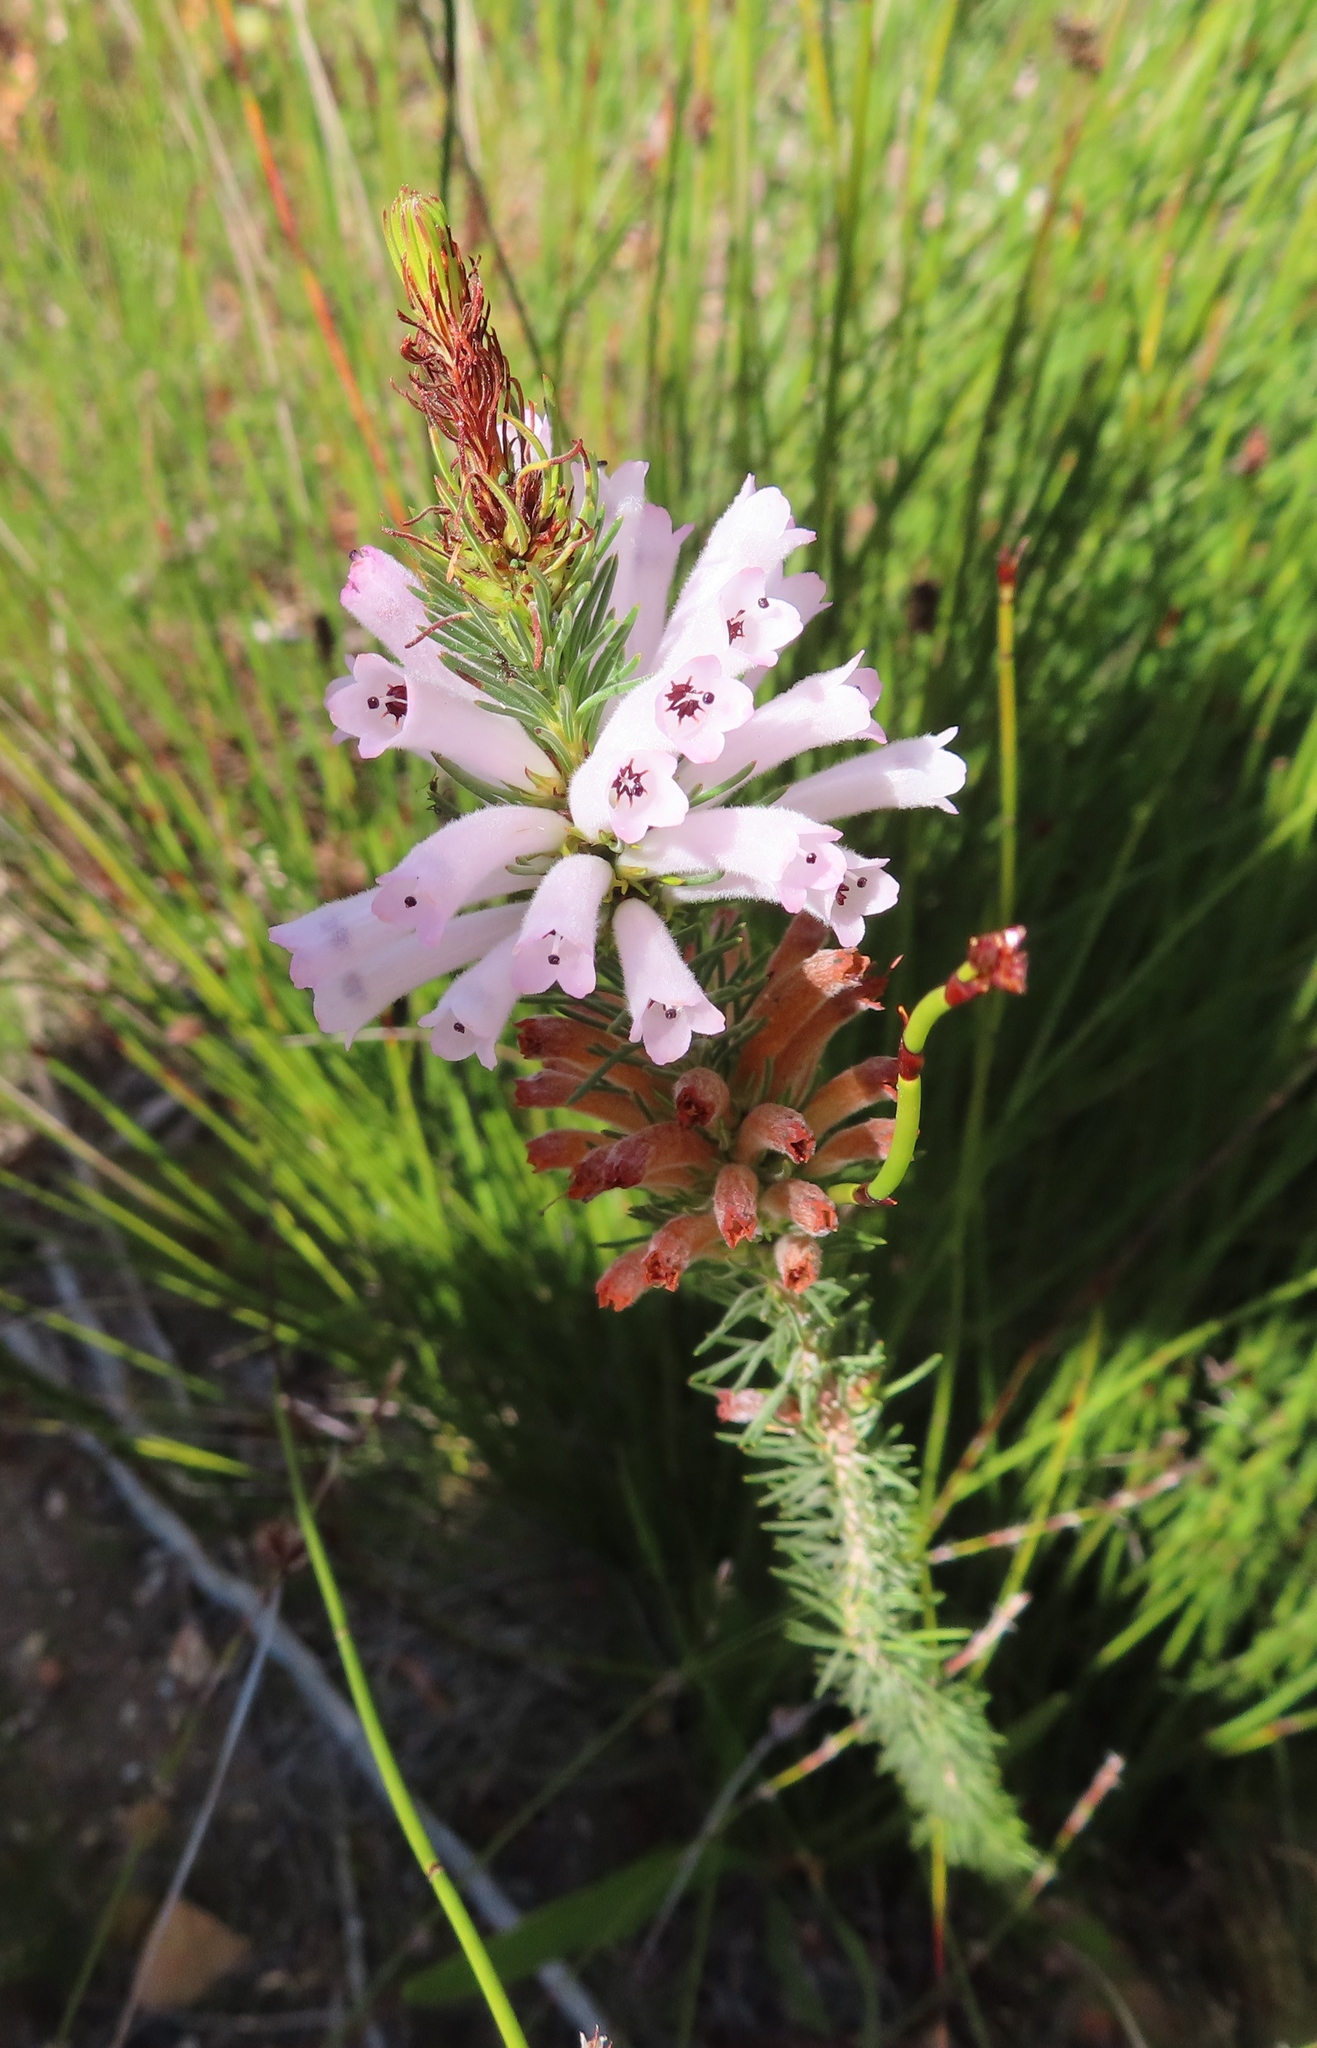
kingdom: Plantae
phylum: Tracheophyta
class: Magnoliopsida
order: Ericales
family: Ericaceae
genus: Erica
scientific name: Erica vestita
